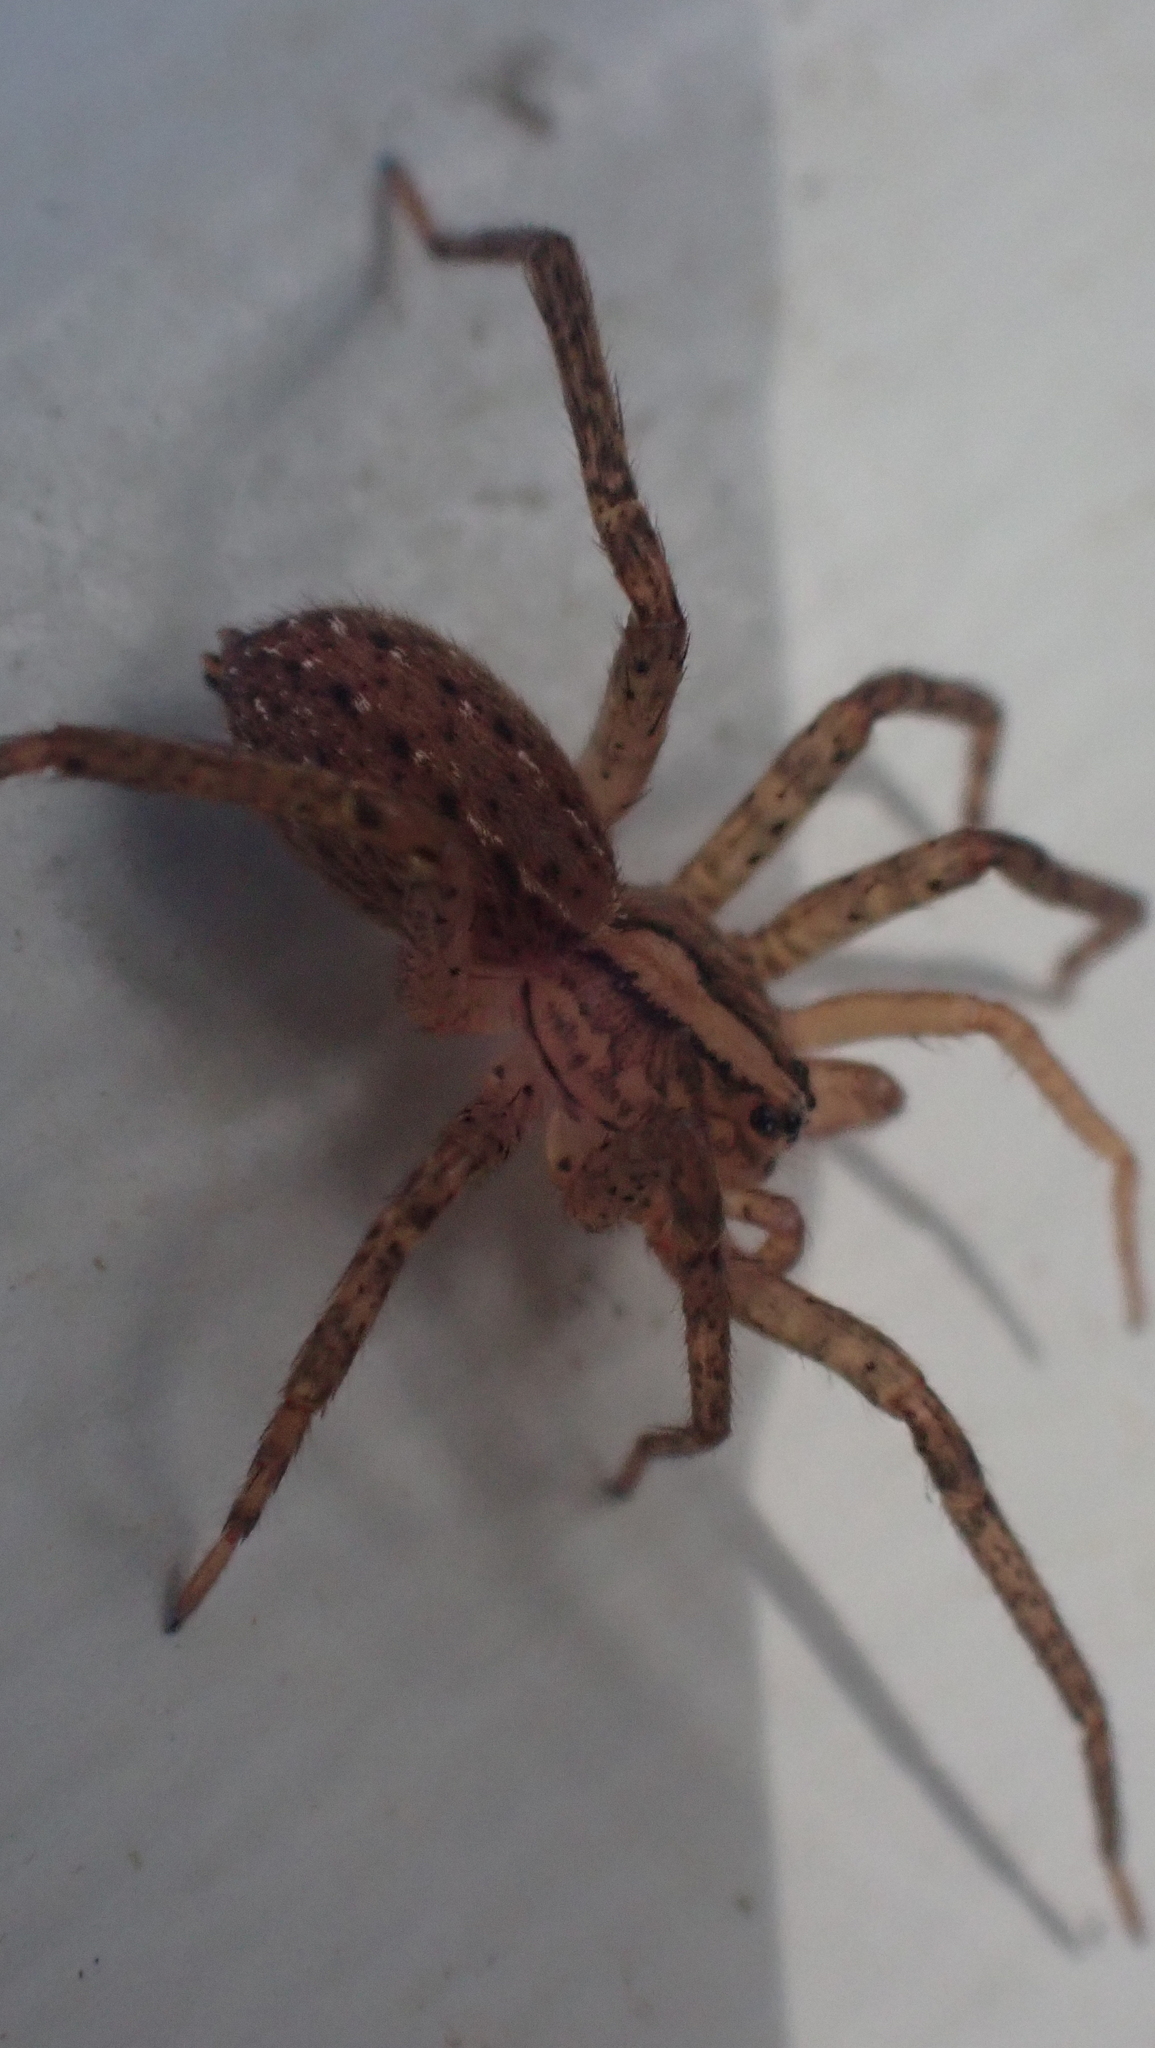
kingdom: Animalia
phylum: Arthropoda
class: Arachnida
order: Araneae
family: Ctenidae
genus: Anahita
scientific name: Anahita punctulata
